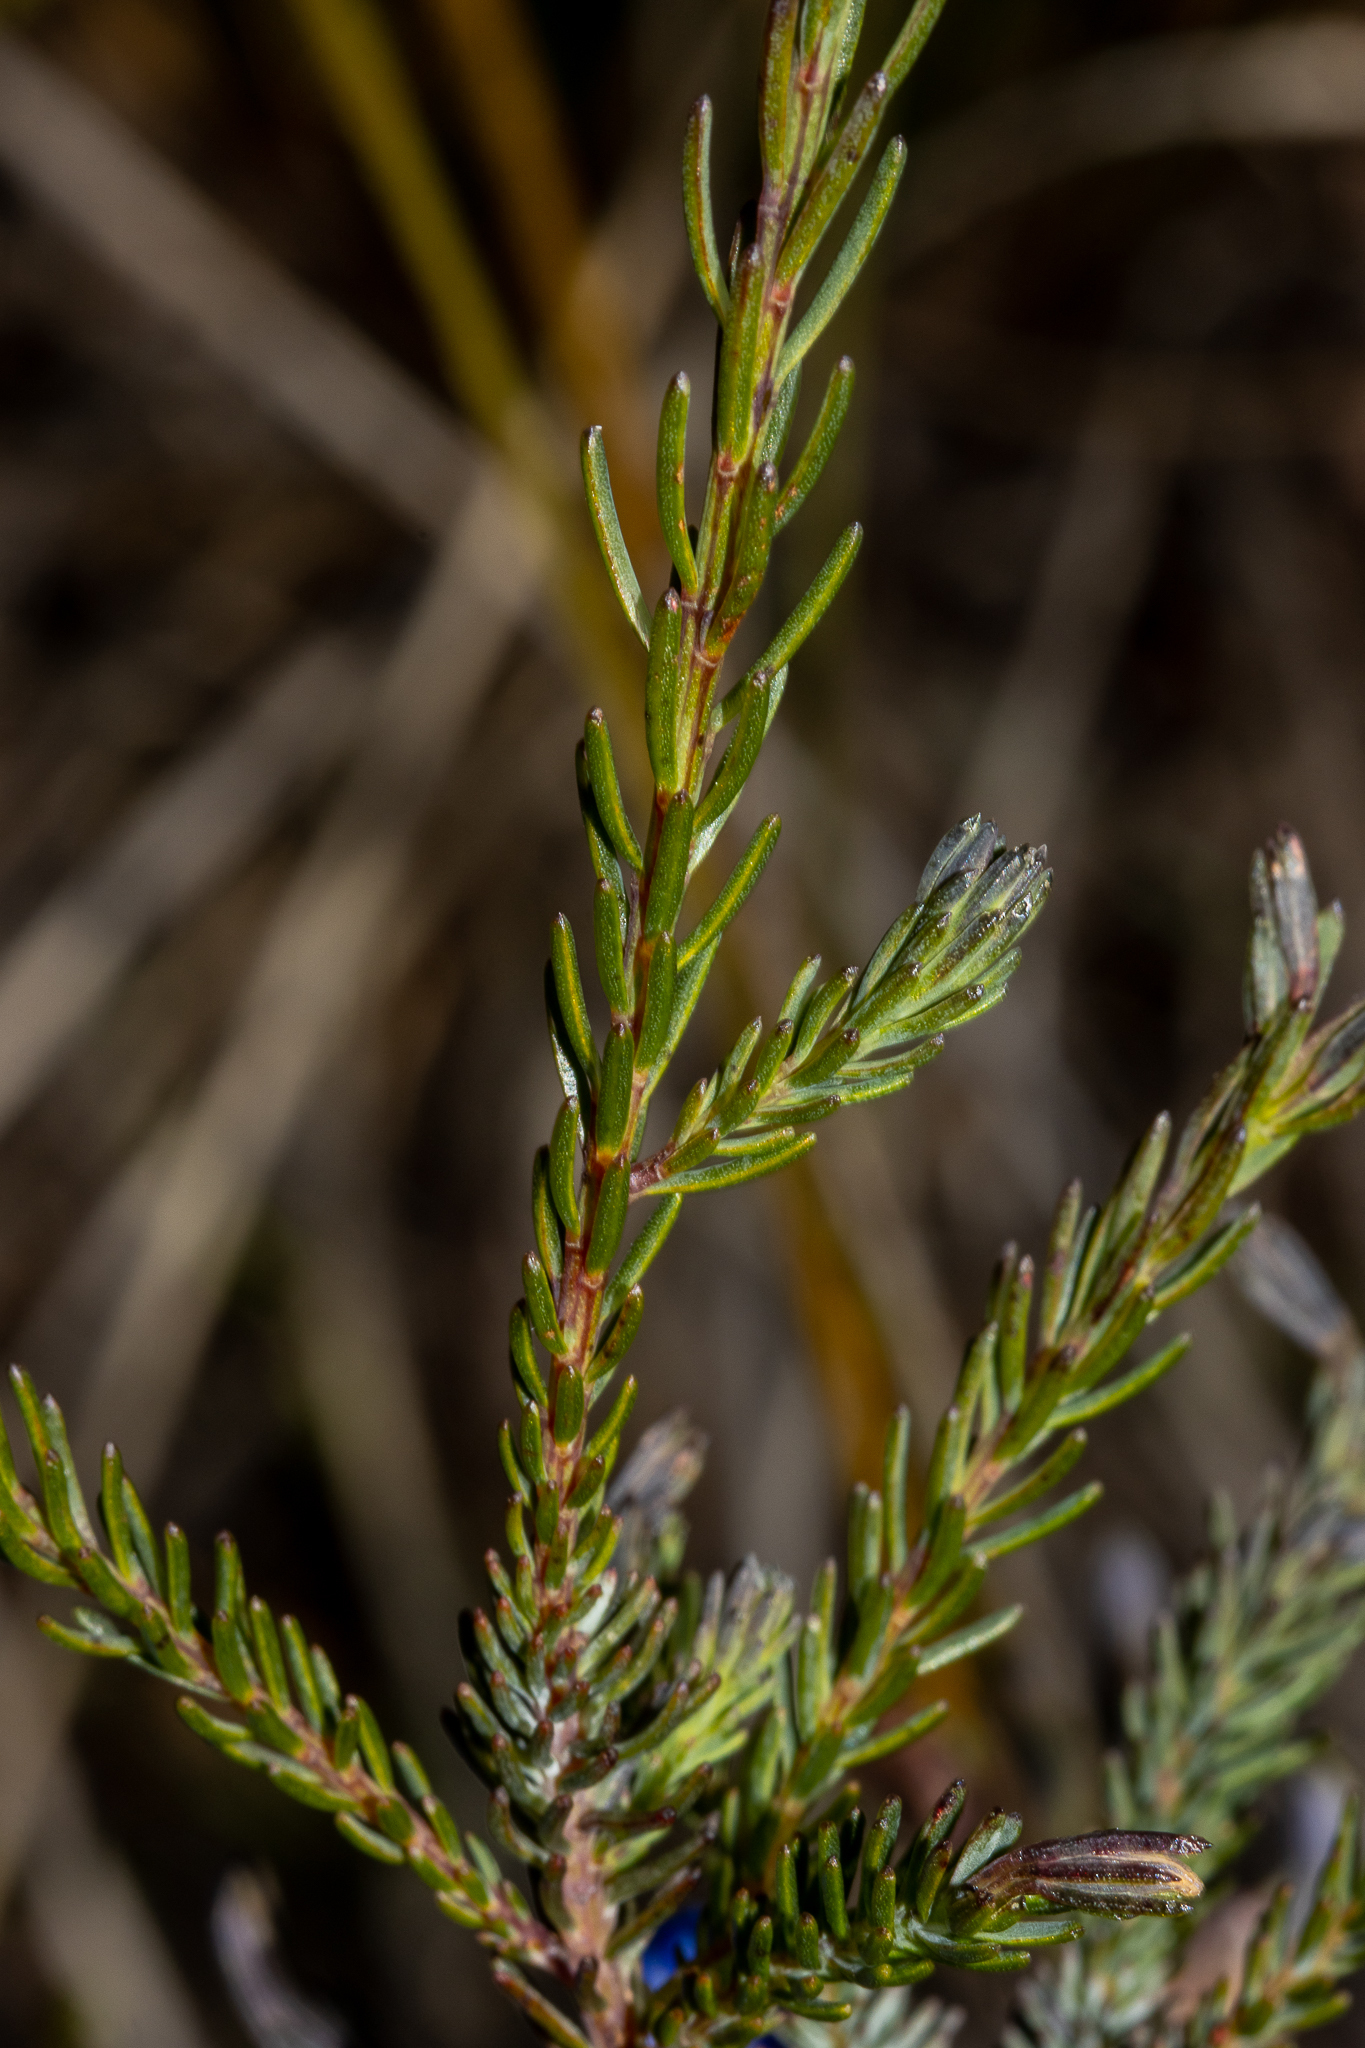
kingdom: Plantae
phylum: Tracheophyta
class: Magnoliopsida
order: Asterales
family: Goodeniaceae
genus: Lechenaultia
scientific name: Lechenaultia biloba
